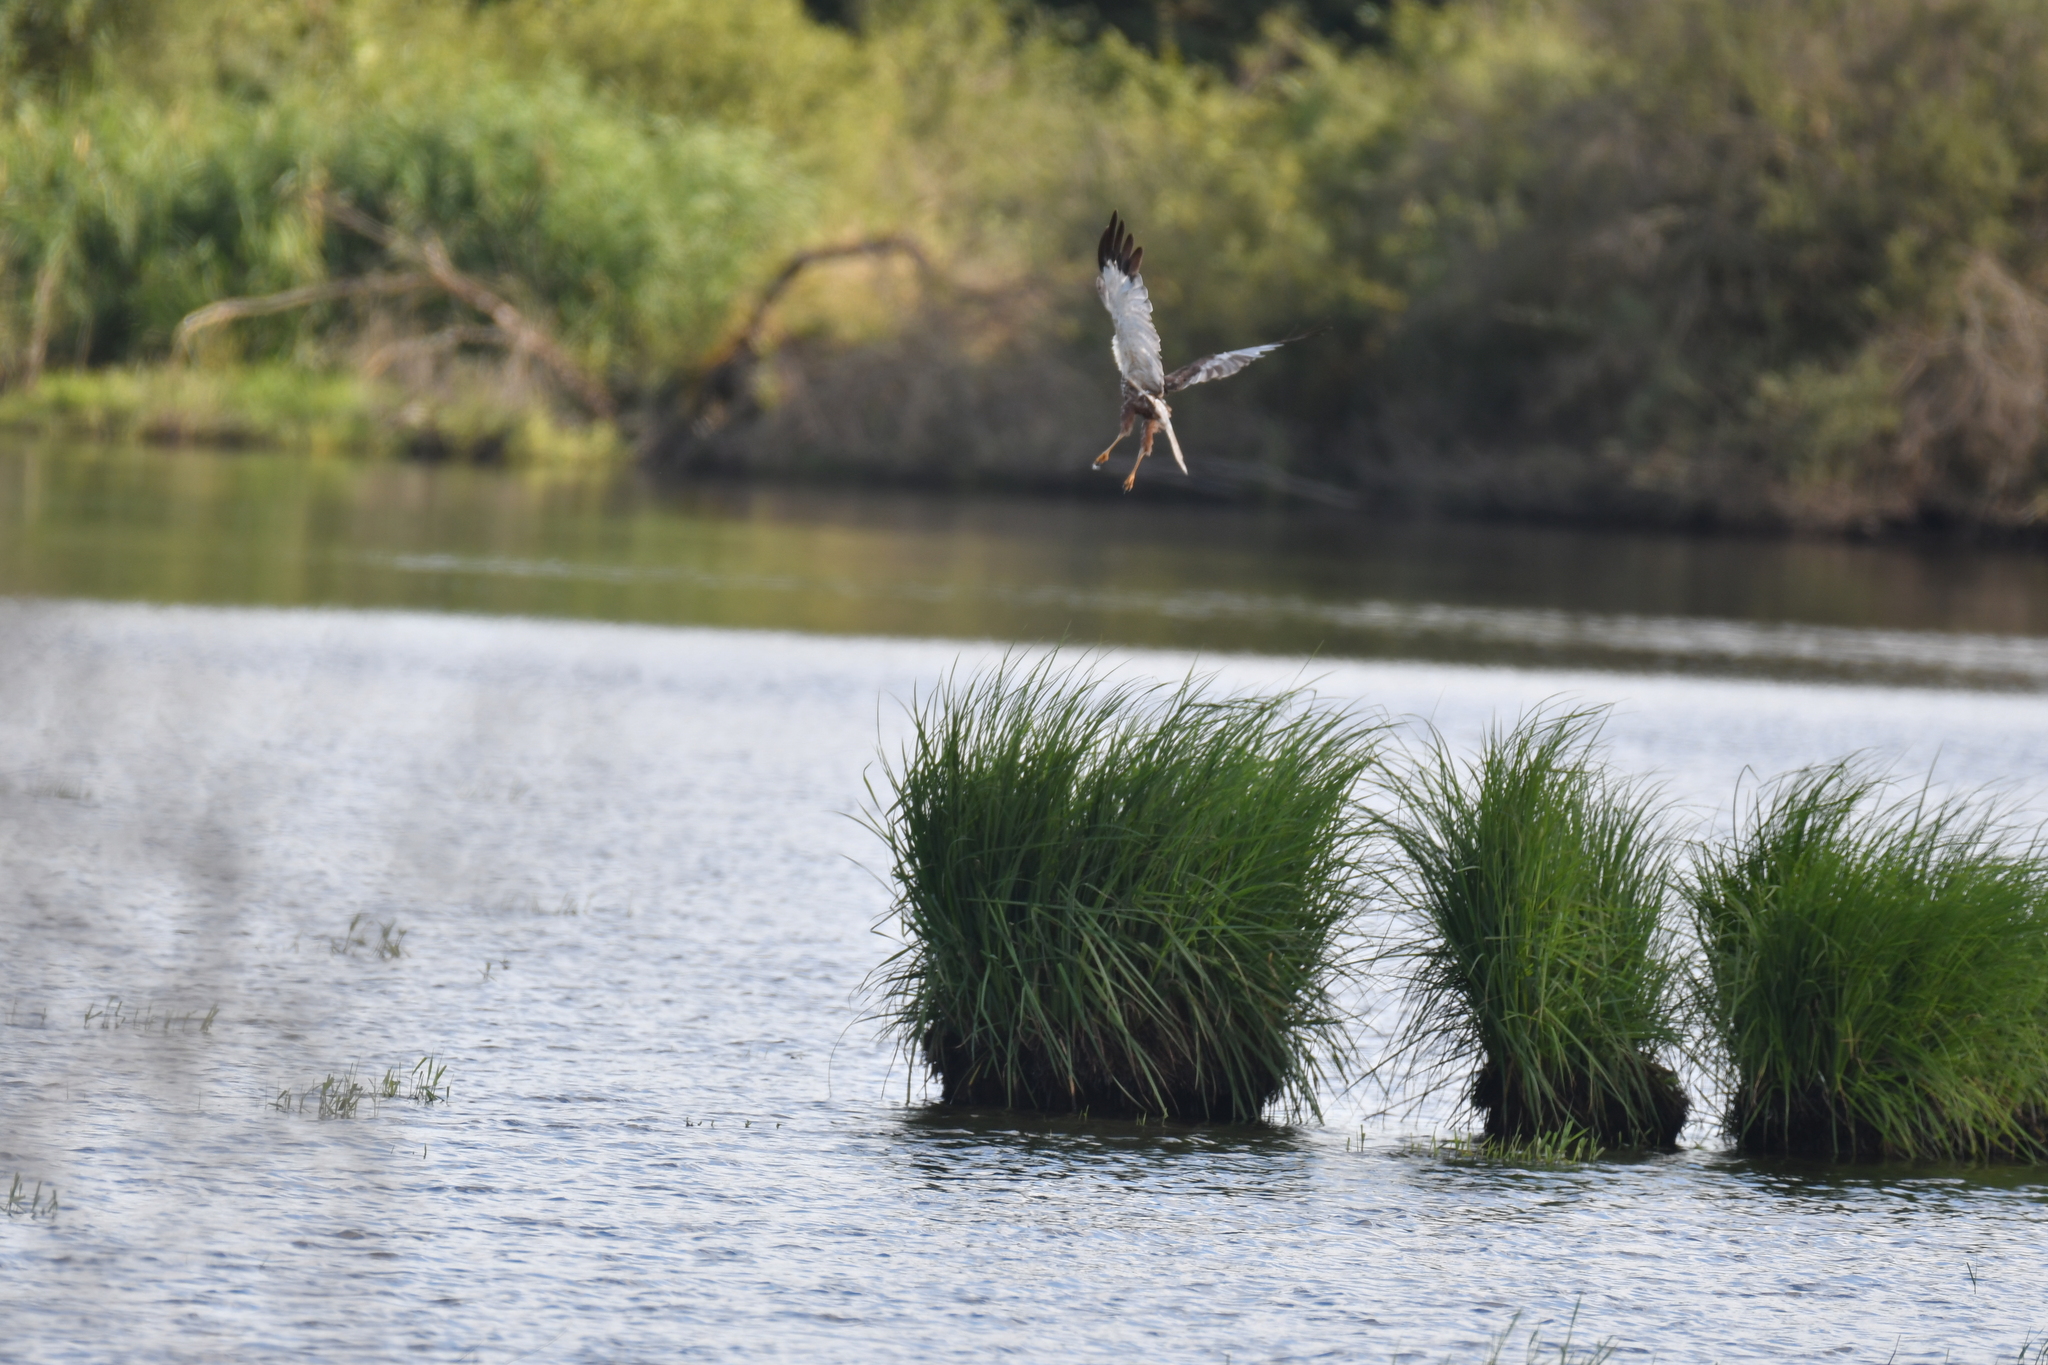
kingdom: Animalia
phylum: Chordata
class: Aves
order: Accipitriformes
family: Accipitridae
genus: Circus
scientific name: Circus aeruginosus
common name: Western marsh harrier
